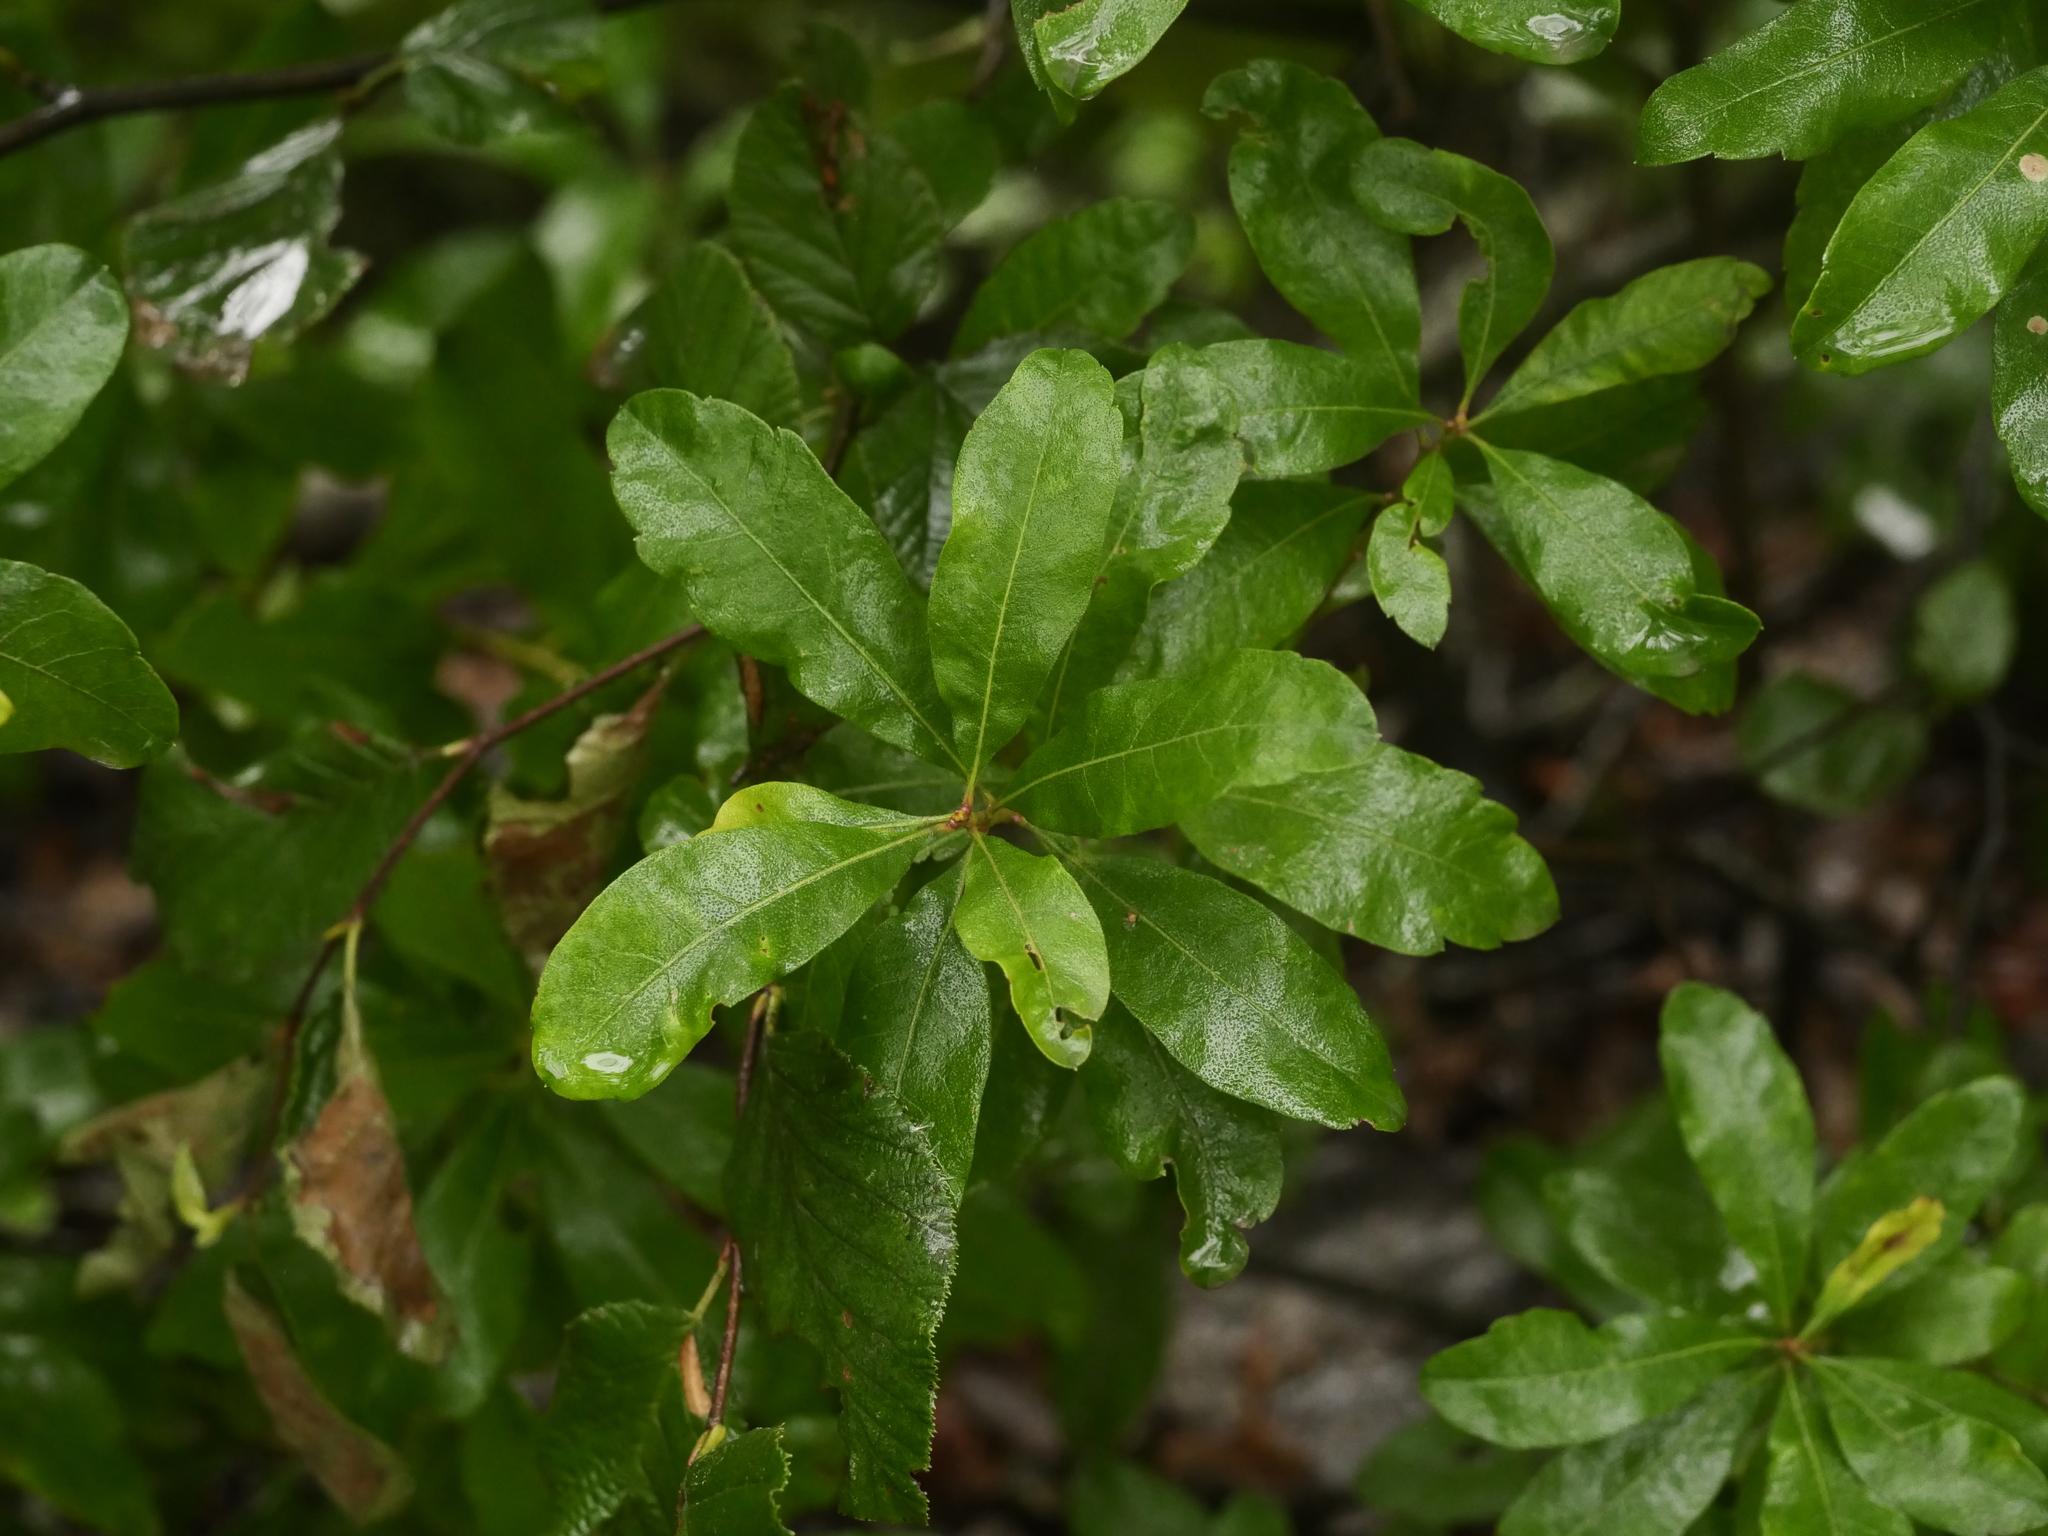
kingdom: Plantae
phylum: Tracheophyta
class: Magnoliopsida
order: Fagales
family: Myricaceae
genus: Morella
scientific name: Morella pensylvanica
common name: Northern bayberry
